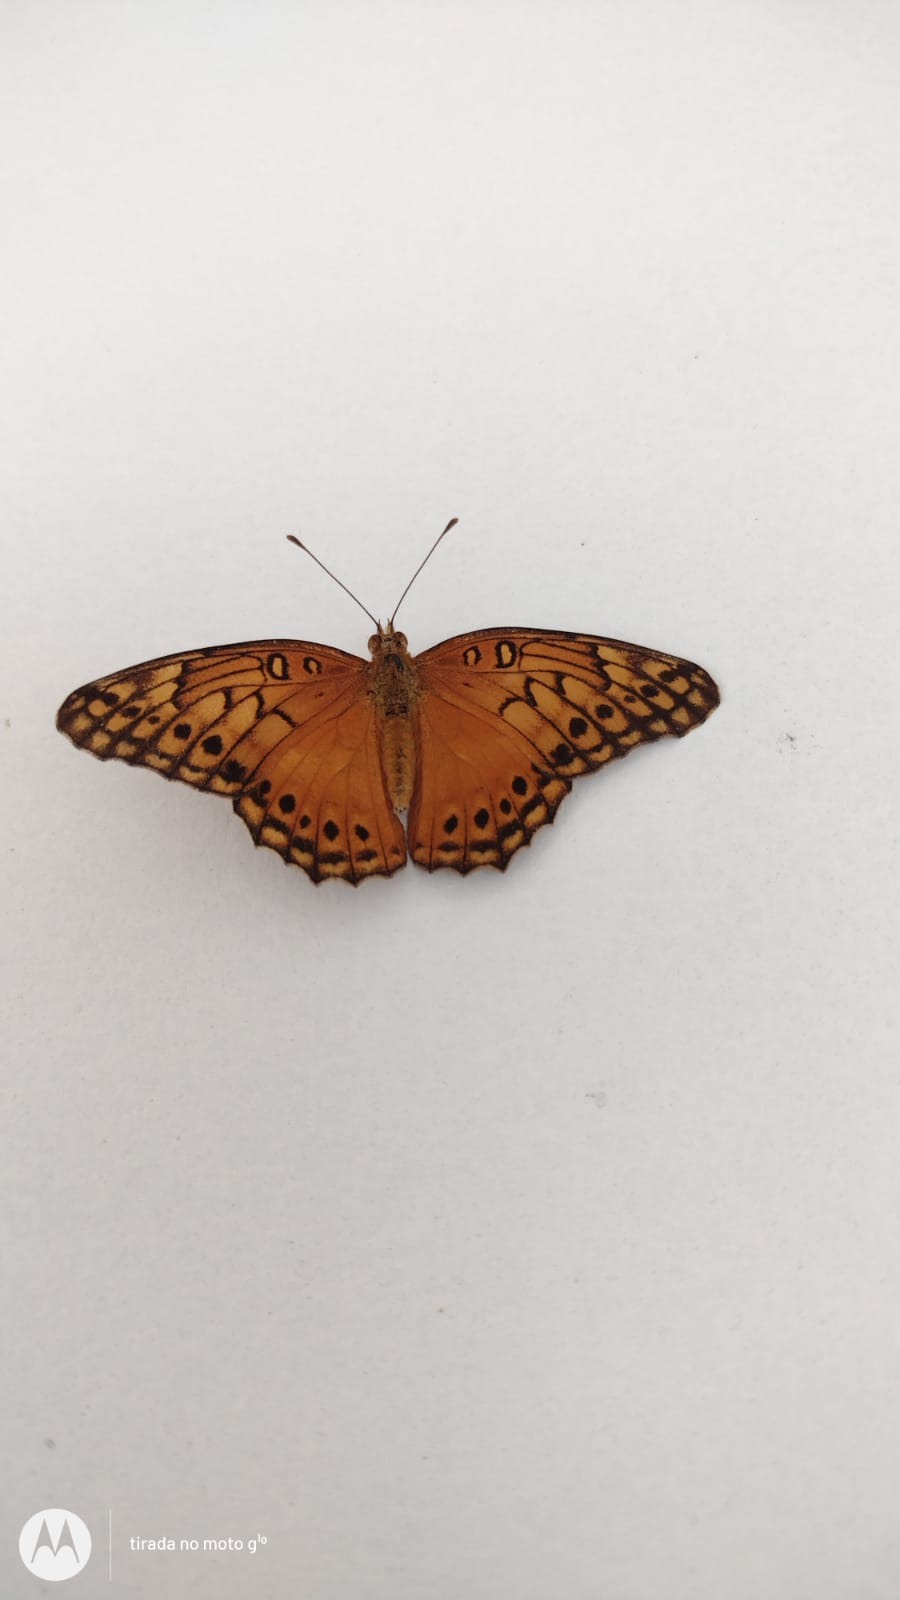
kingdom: Animalia
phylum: Arthropoda
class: Insecta
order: Lepidoptera
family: Nymphalidae
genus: Euptoieta
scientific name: Euptoieta hegesia
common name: Mexican fritillary
